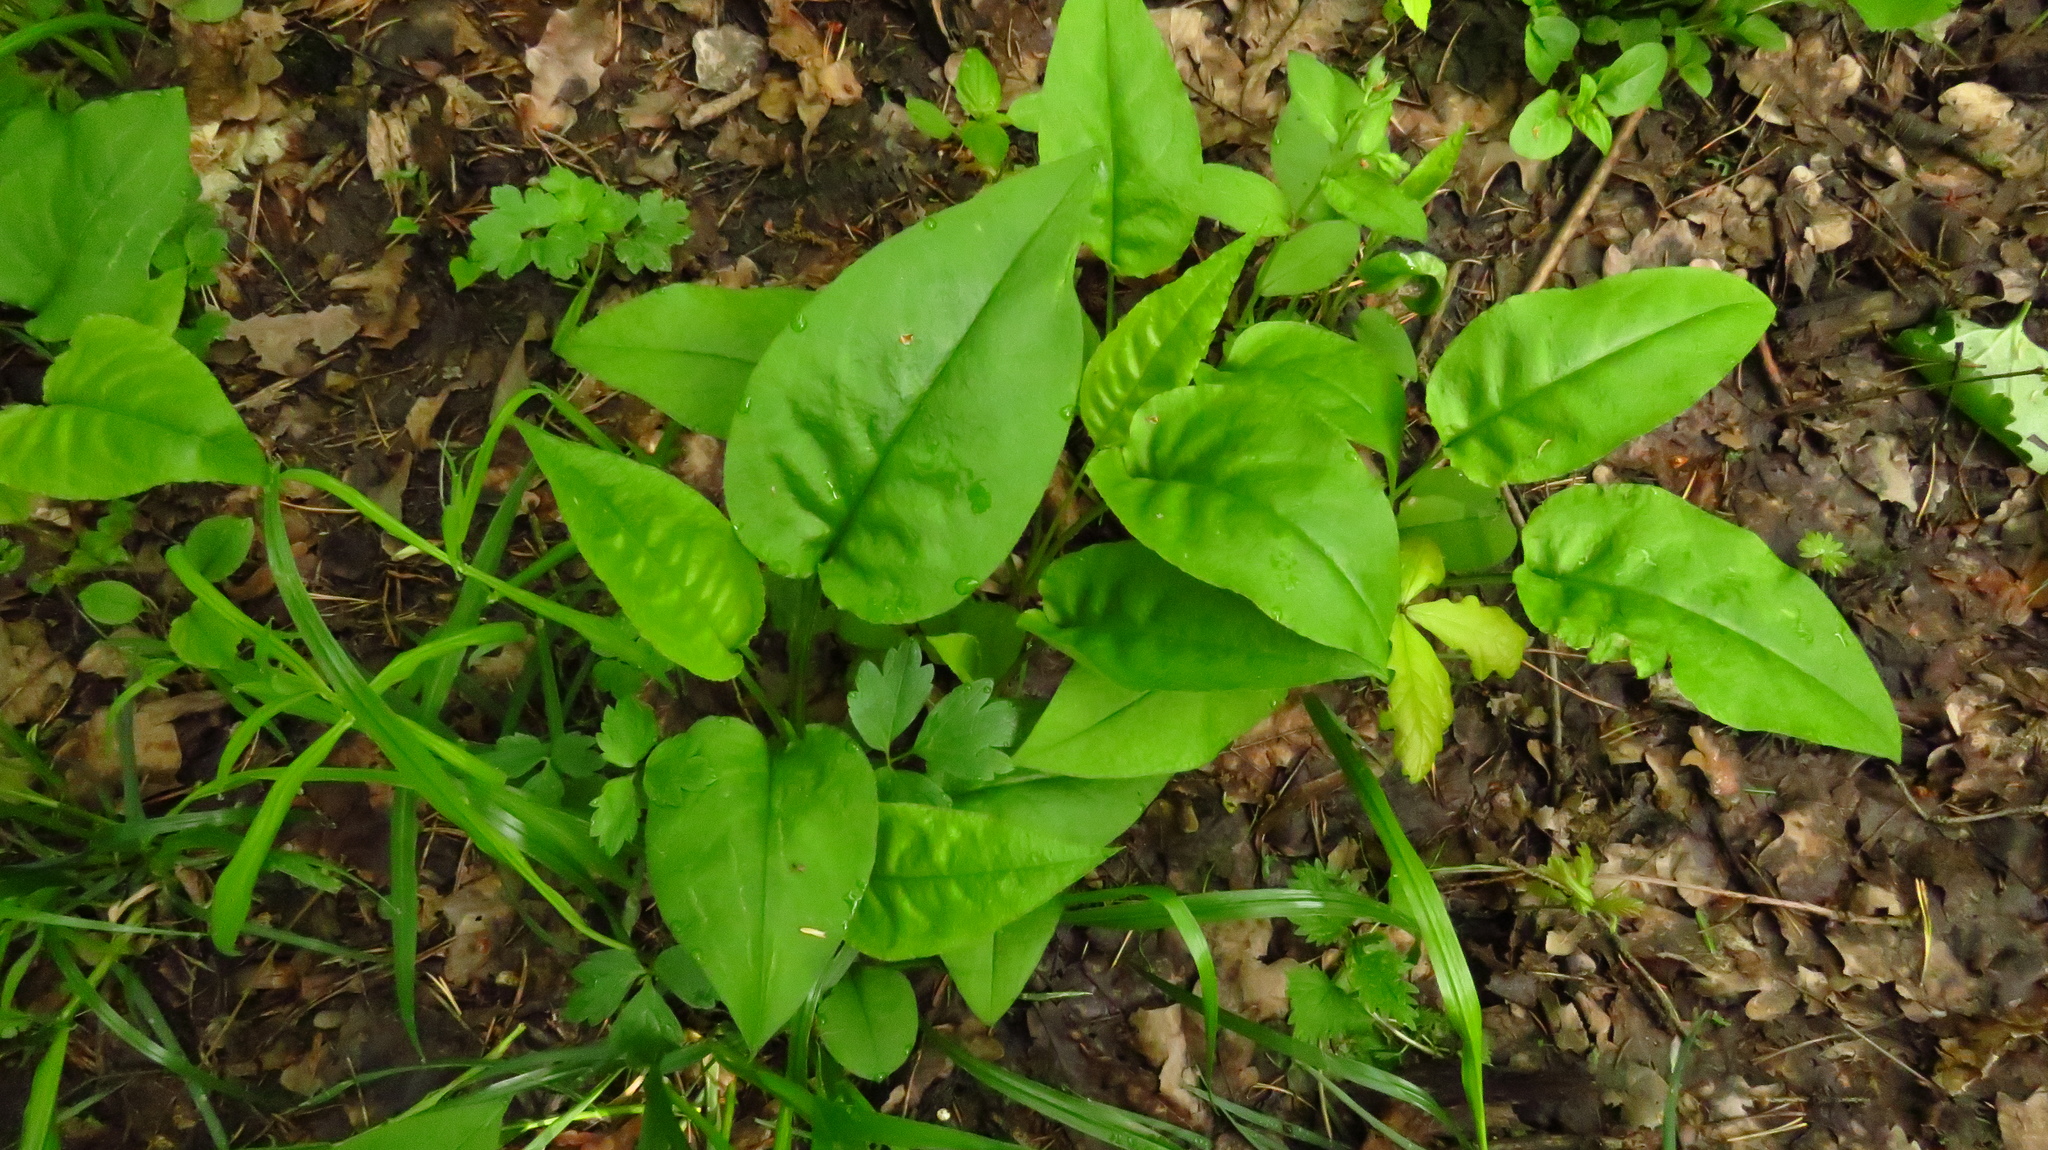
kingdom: Plantae
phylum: Tracheophyta
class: Magnoliopsida
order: Boraginales
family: Boraginaceae
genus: Pulmonaria
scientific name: Pulmonaria obscura
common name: Suffolk lungwort
